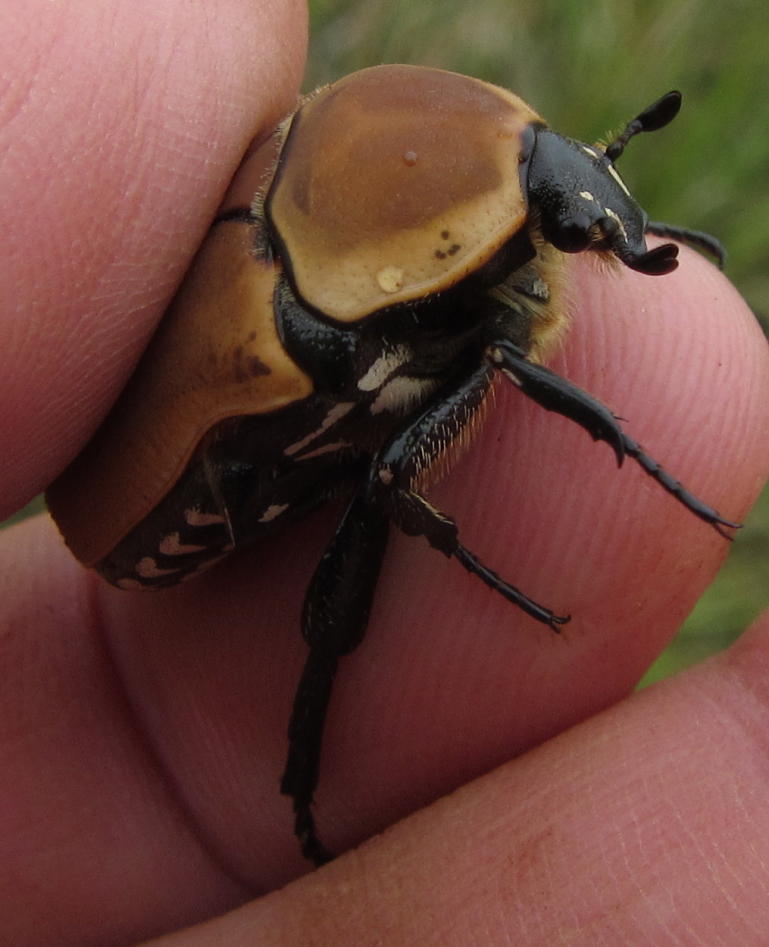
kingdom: Animalia
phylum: Arthropoda
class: Insecta
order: Coleoptera
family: Scarabaeidae
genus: Dischista
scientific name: Dischista rufa
